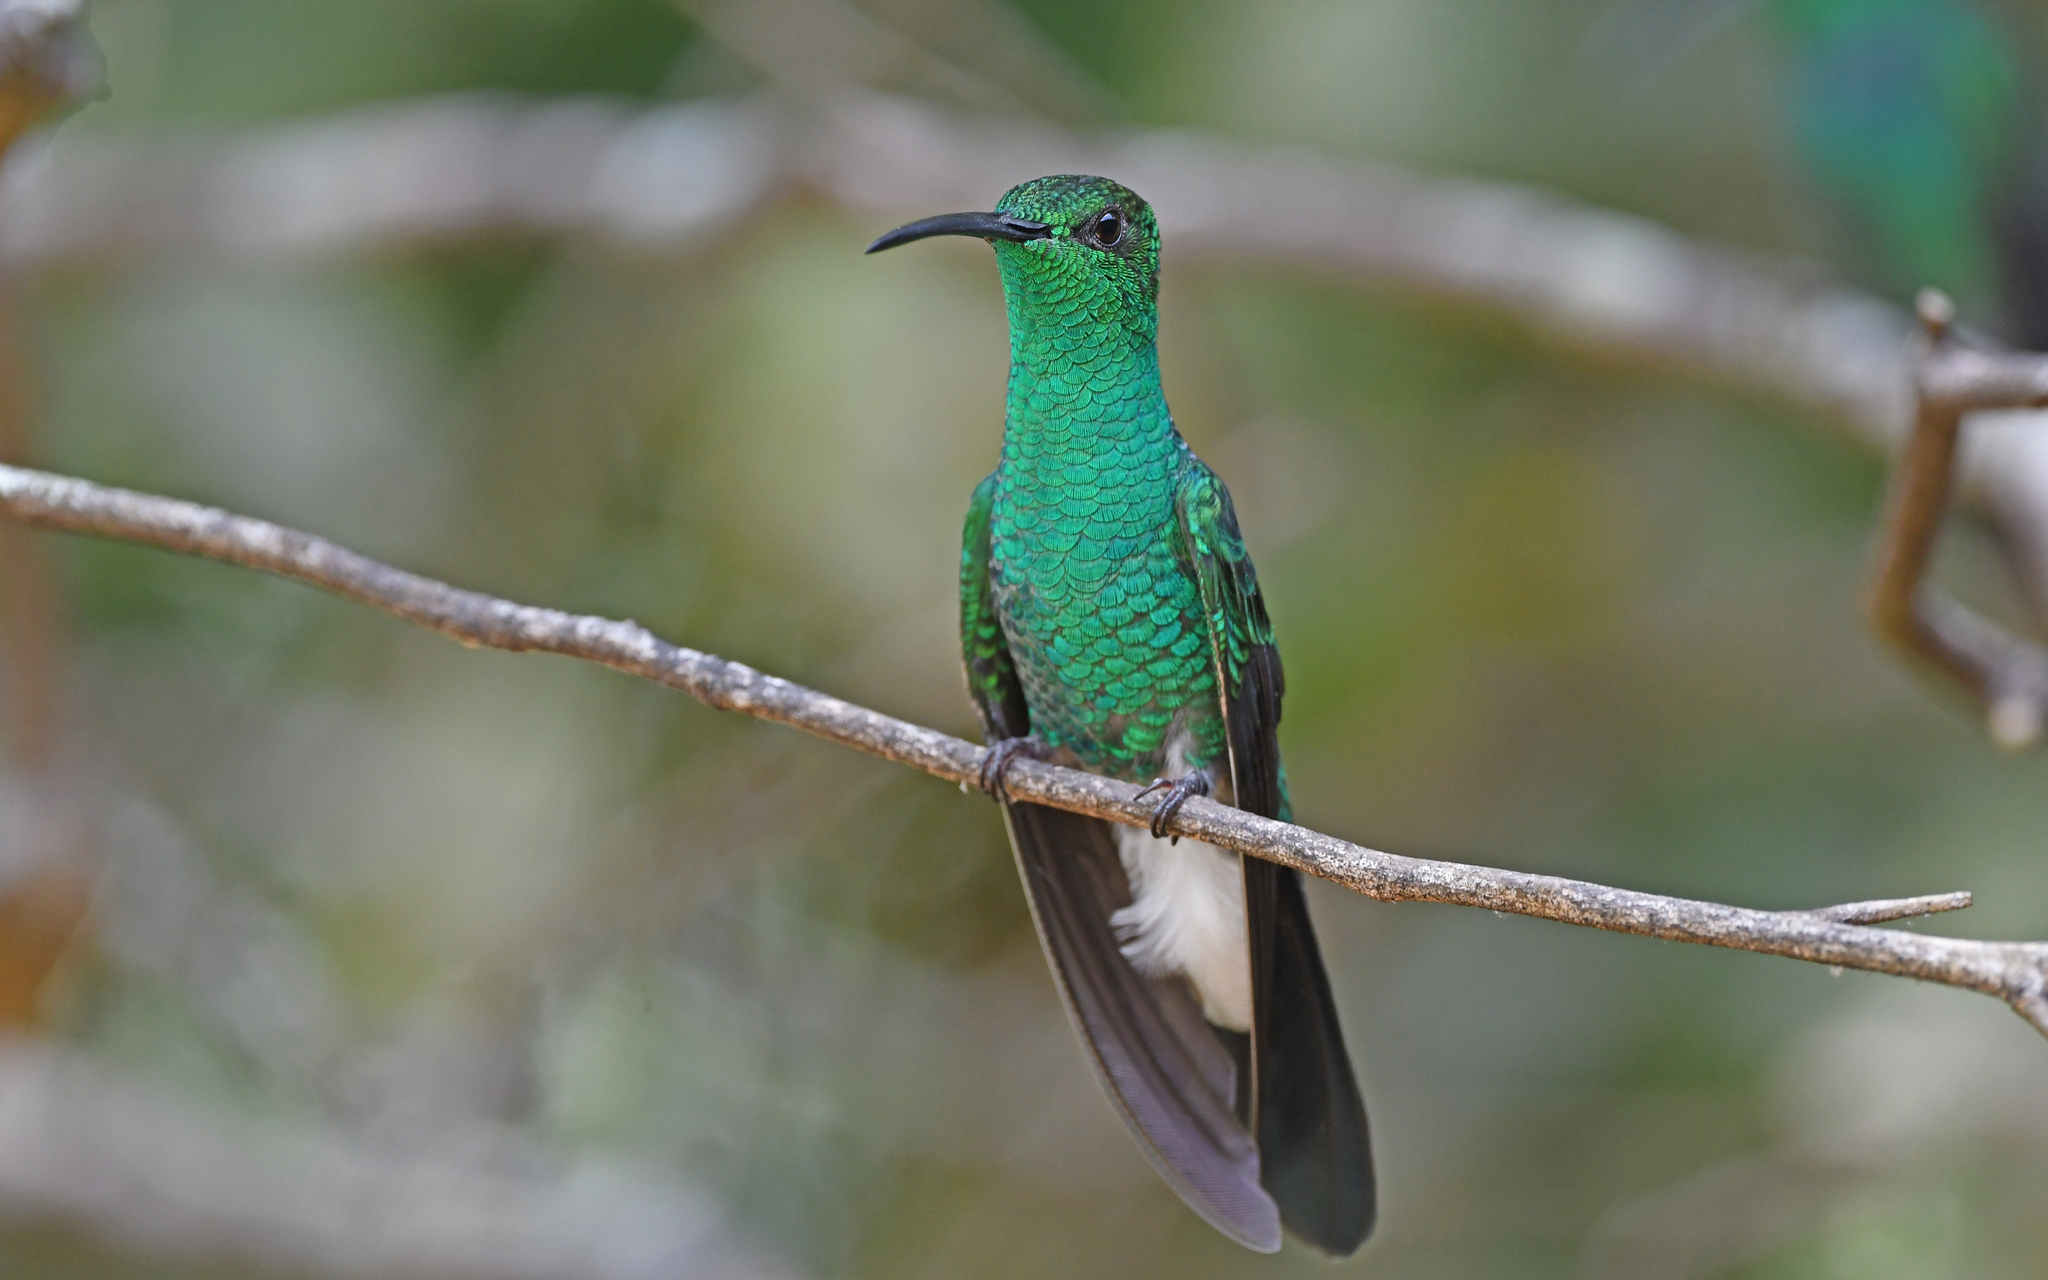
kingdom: Animalia
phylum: Chordata
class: Aves
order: Apodiformes
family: Trochilidae
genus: Chalybura
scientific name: Chalybura buffonii
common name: White-vented plumeleteer
